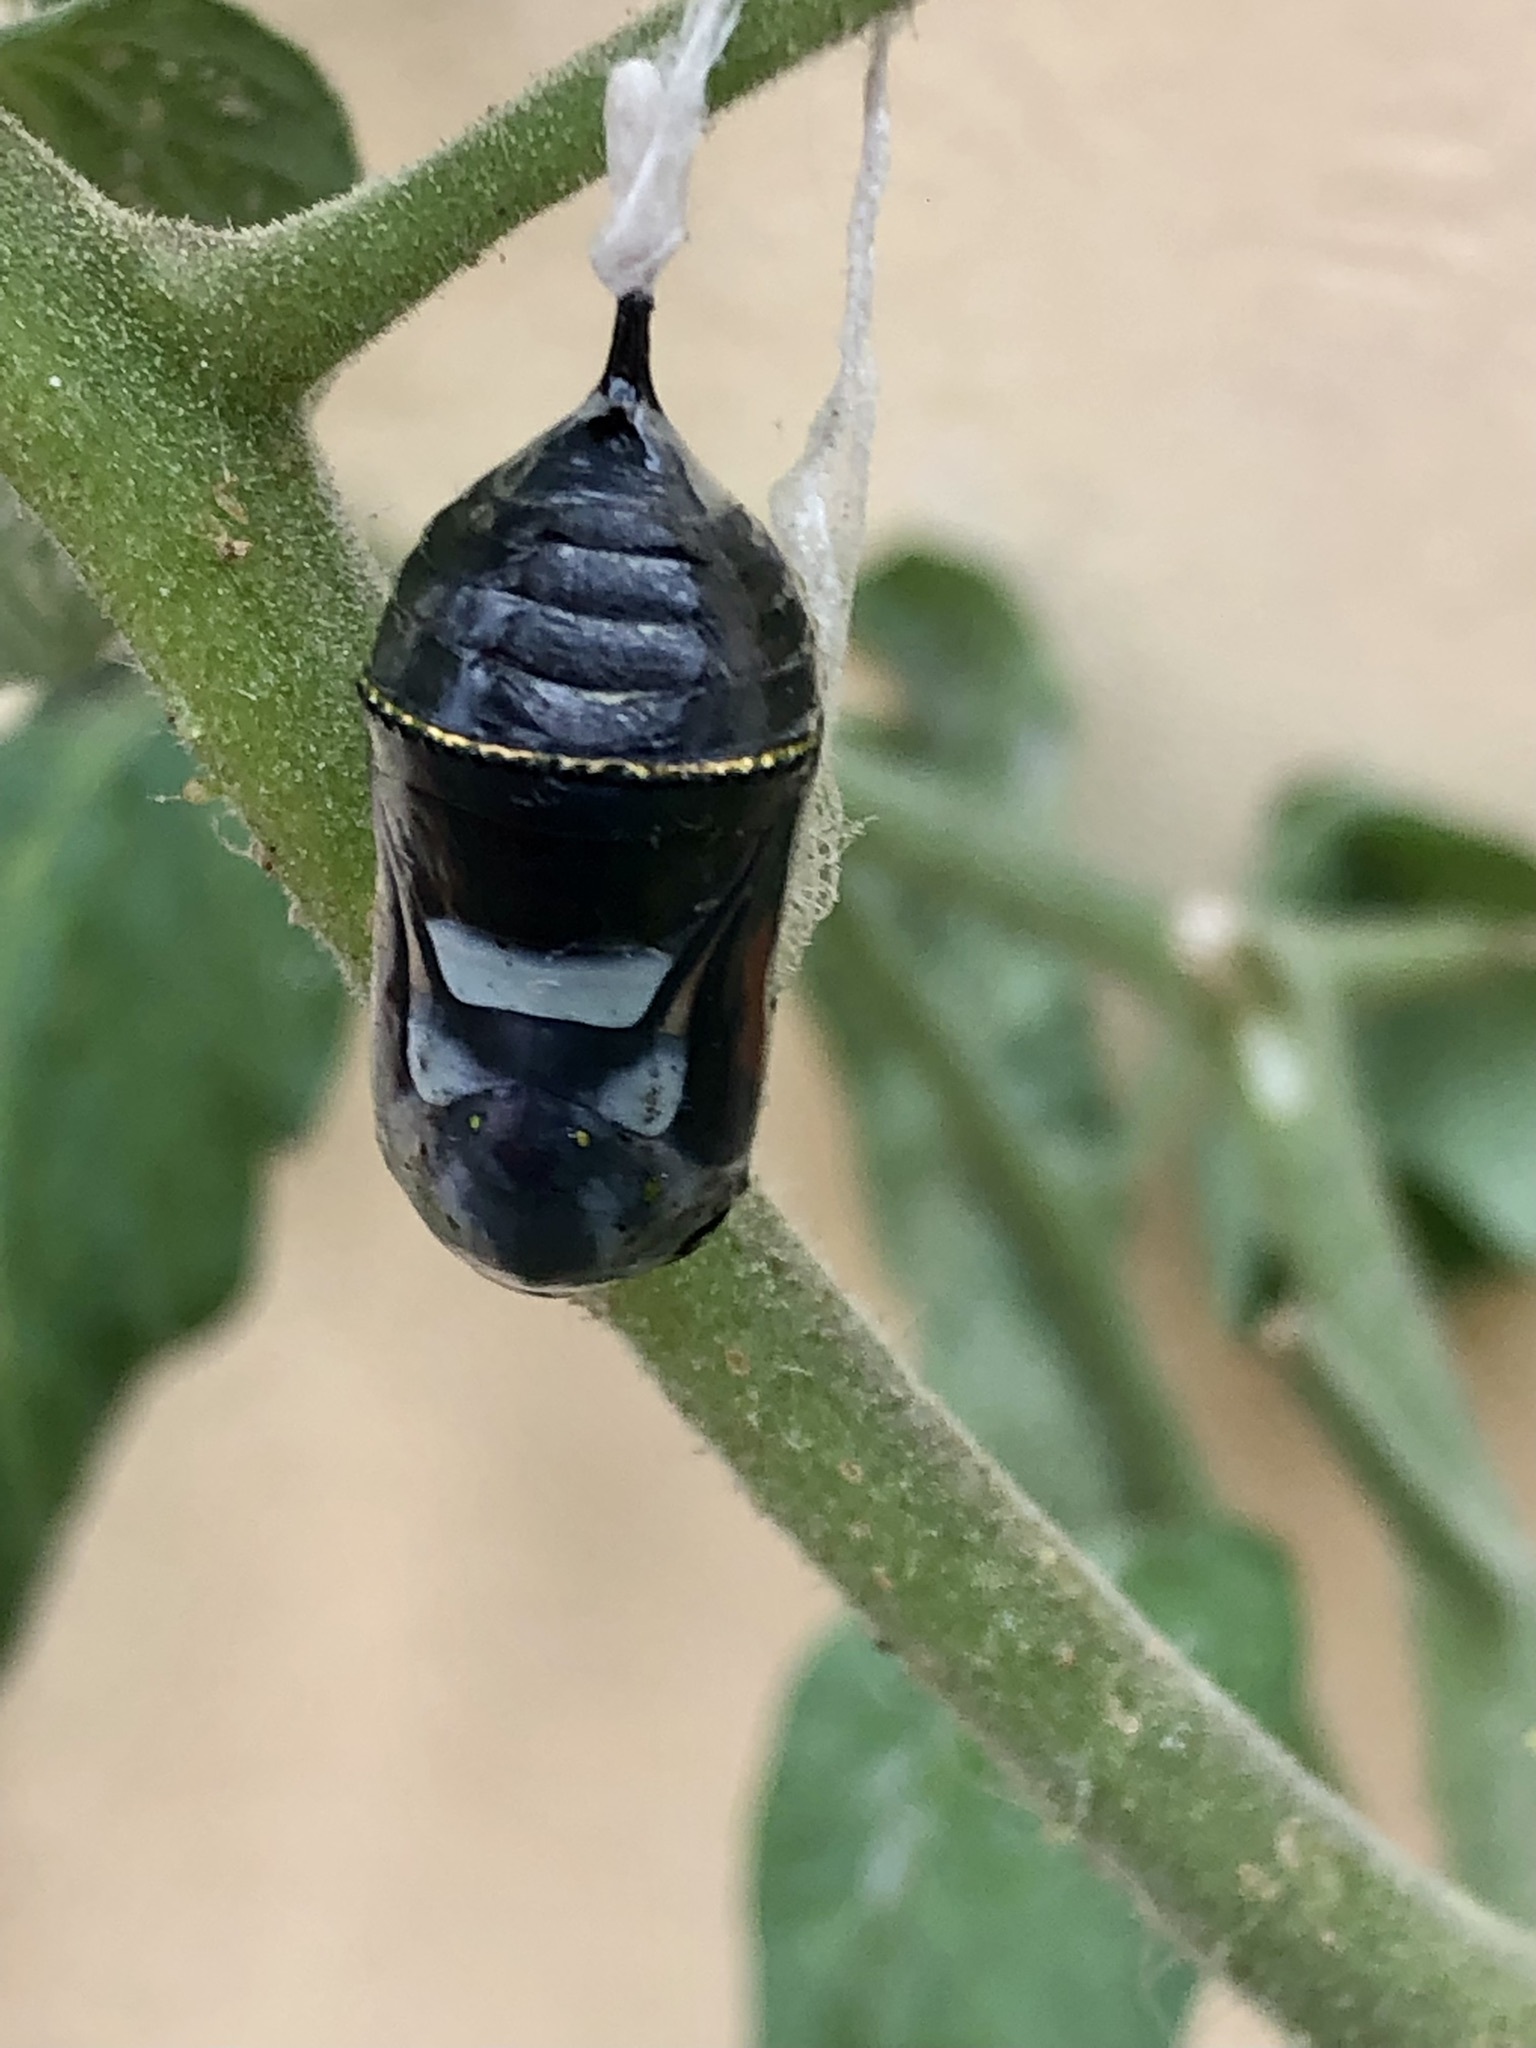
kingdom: Animalia
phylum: Arthropoda
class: Insecta
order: Lepidoptera
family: Nymphalidae
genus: Danaus
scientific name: Danaus plexippus
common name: Monarch
